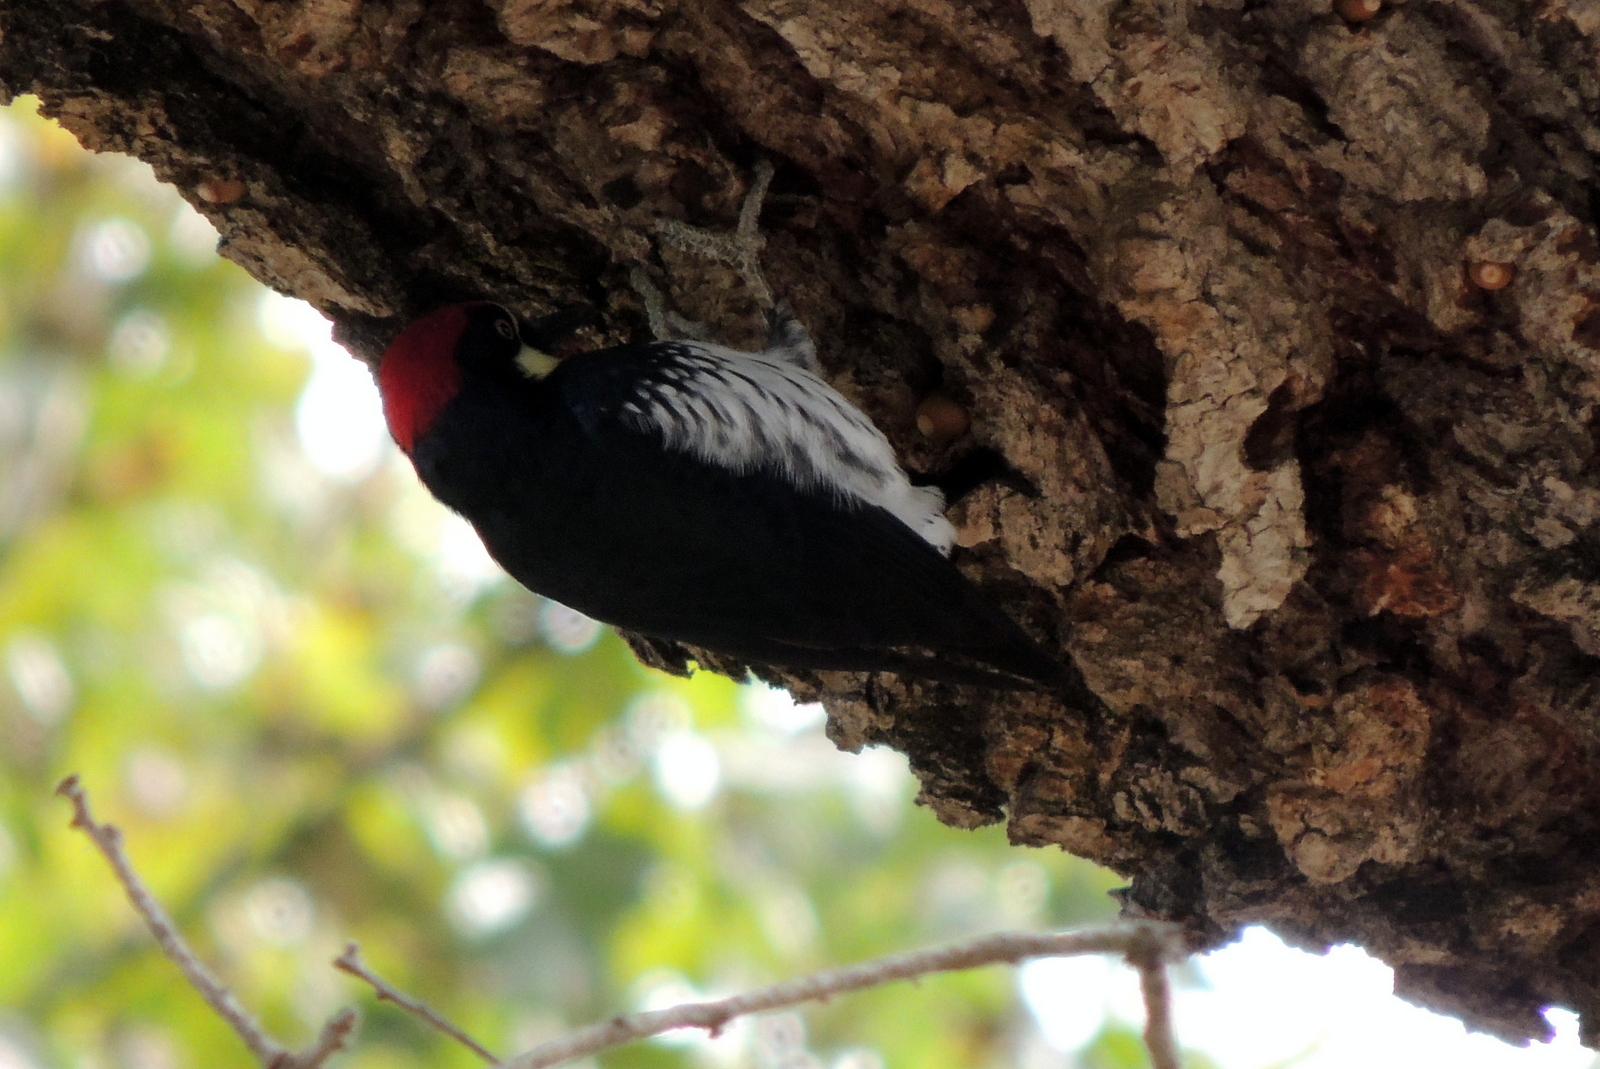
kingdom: Animalia
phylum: Chordata
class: Aves
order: Piciformes
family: Picidae
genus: Melanerpes
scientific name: Melanerpes formicivorus
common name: Acorn woodpecker
